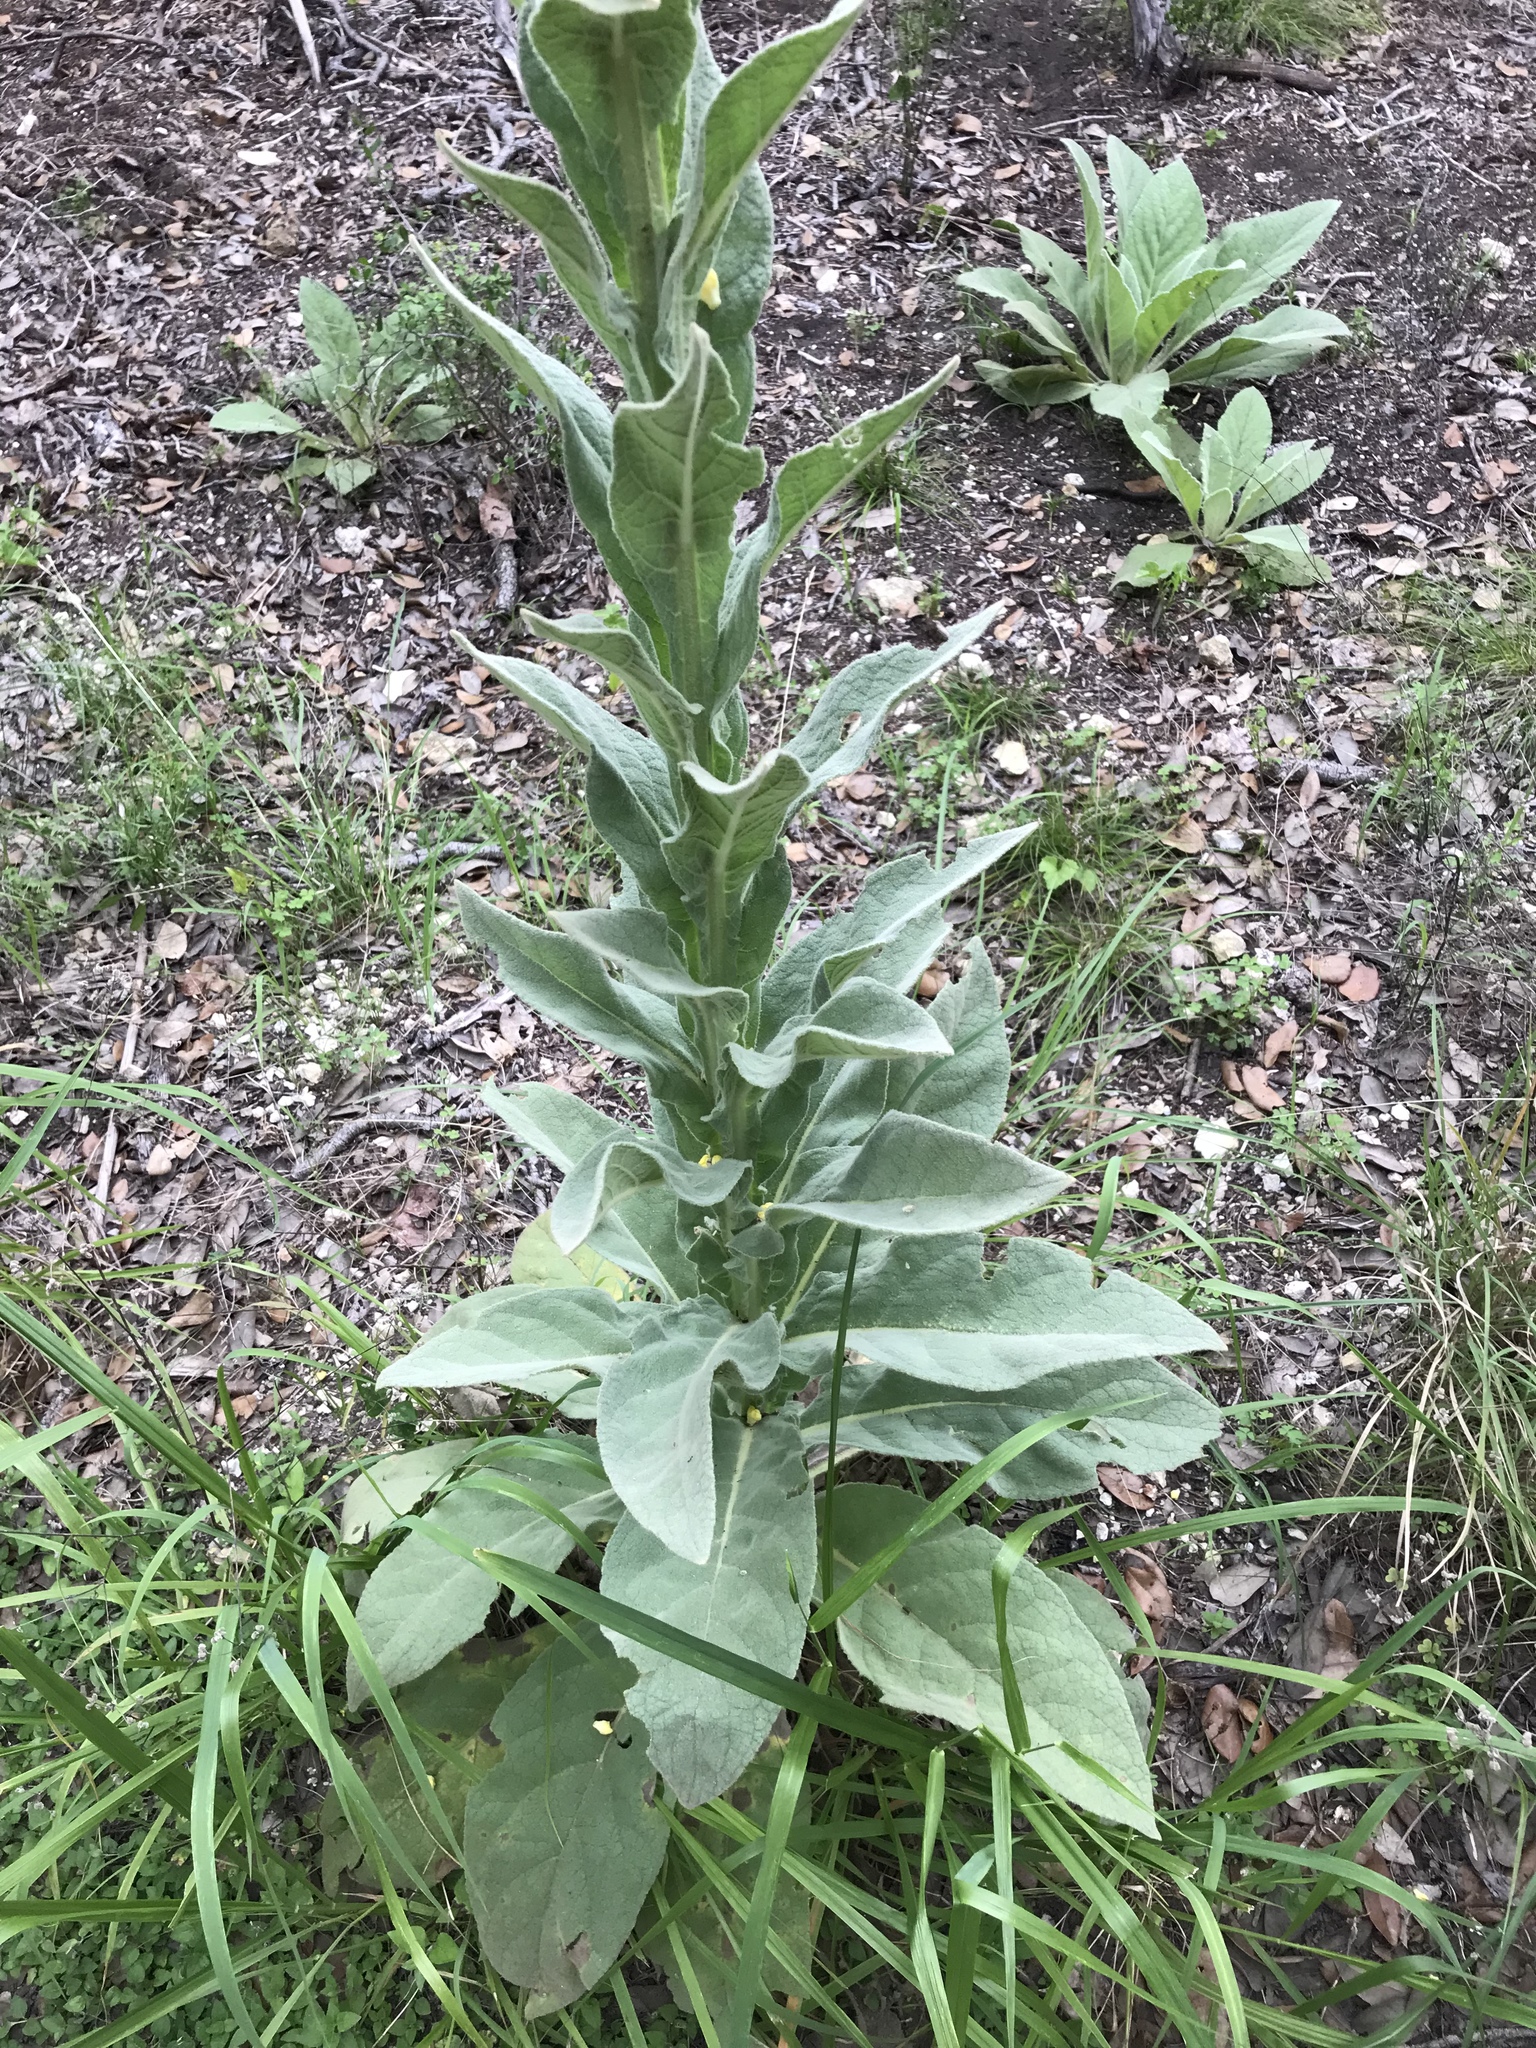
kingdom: Plantae
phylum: Tracheophyta
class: Magnoliopsida
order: Lamiales
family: Scrophulariaceae
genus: Verbascum
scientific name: Verbascum thapsus
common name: Common mullein
